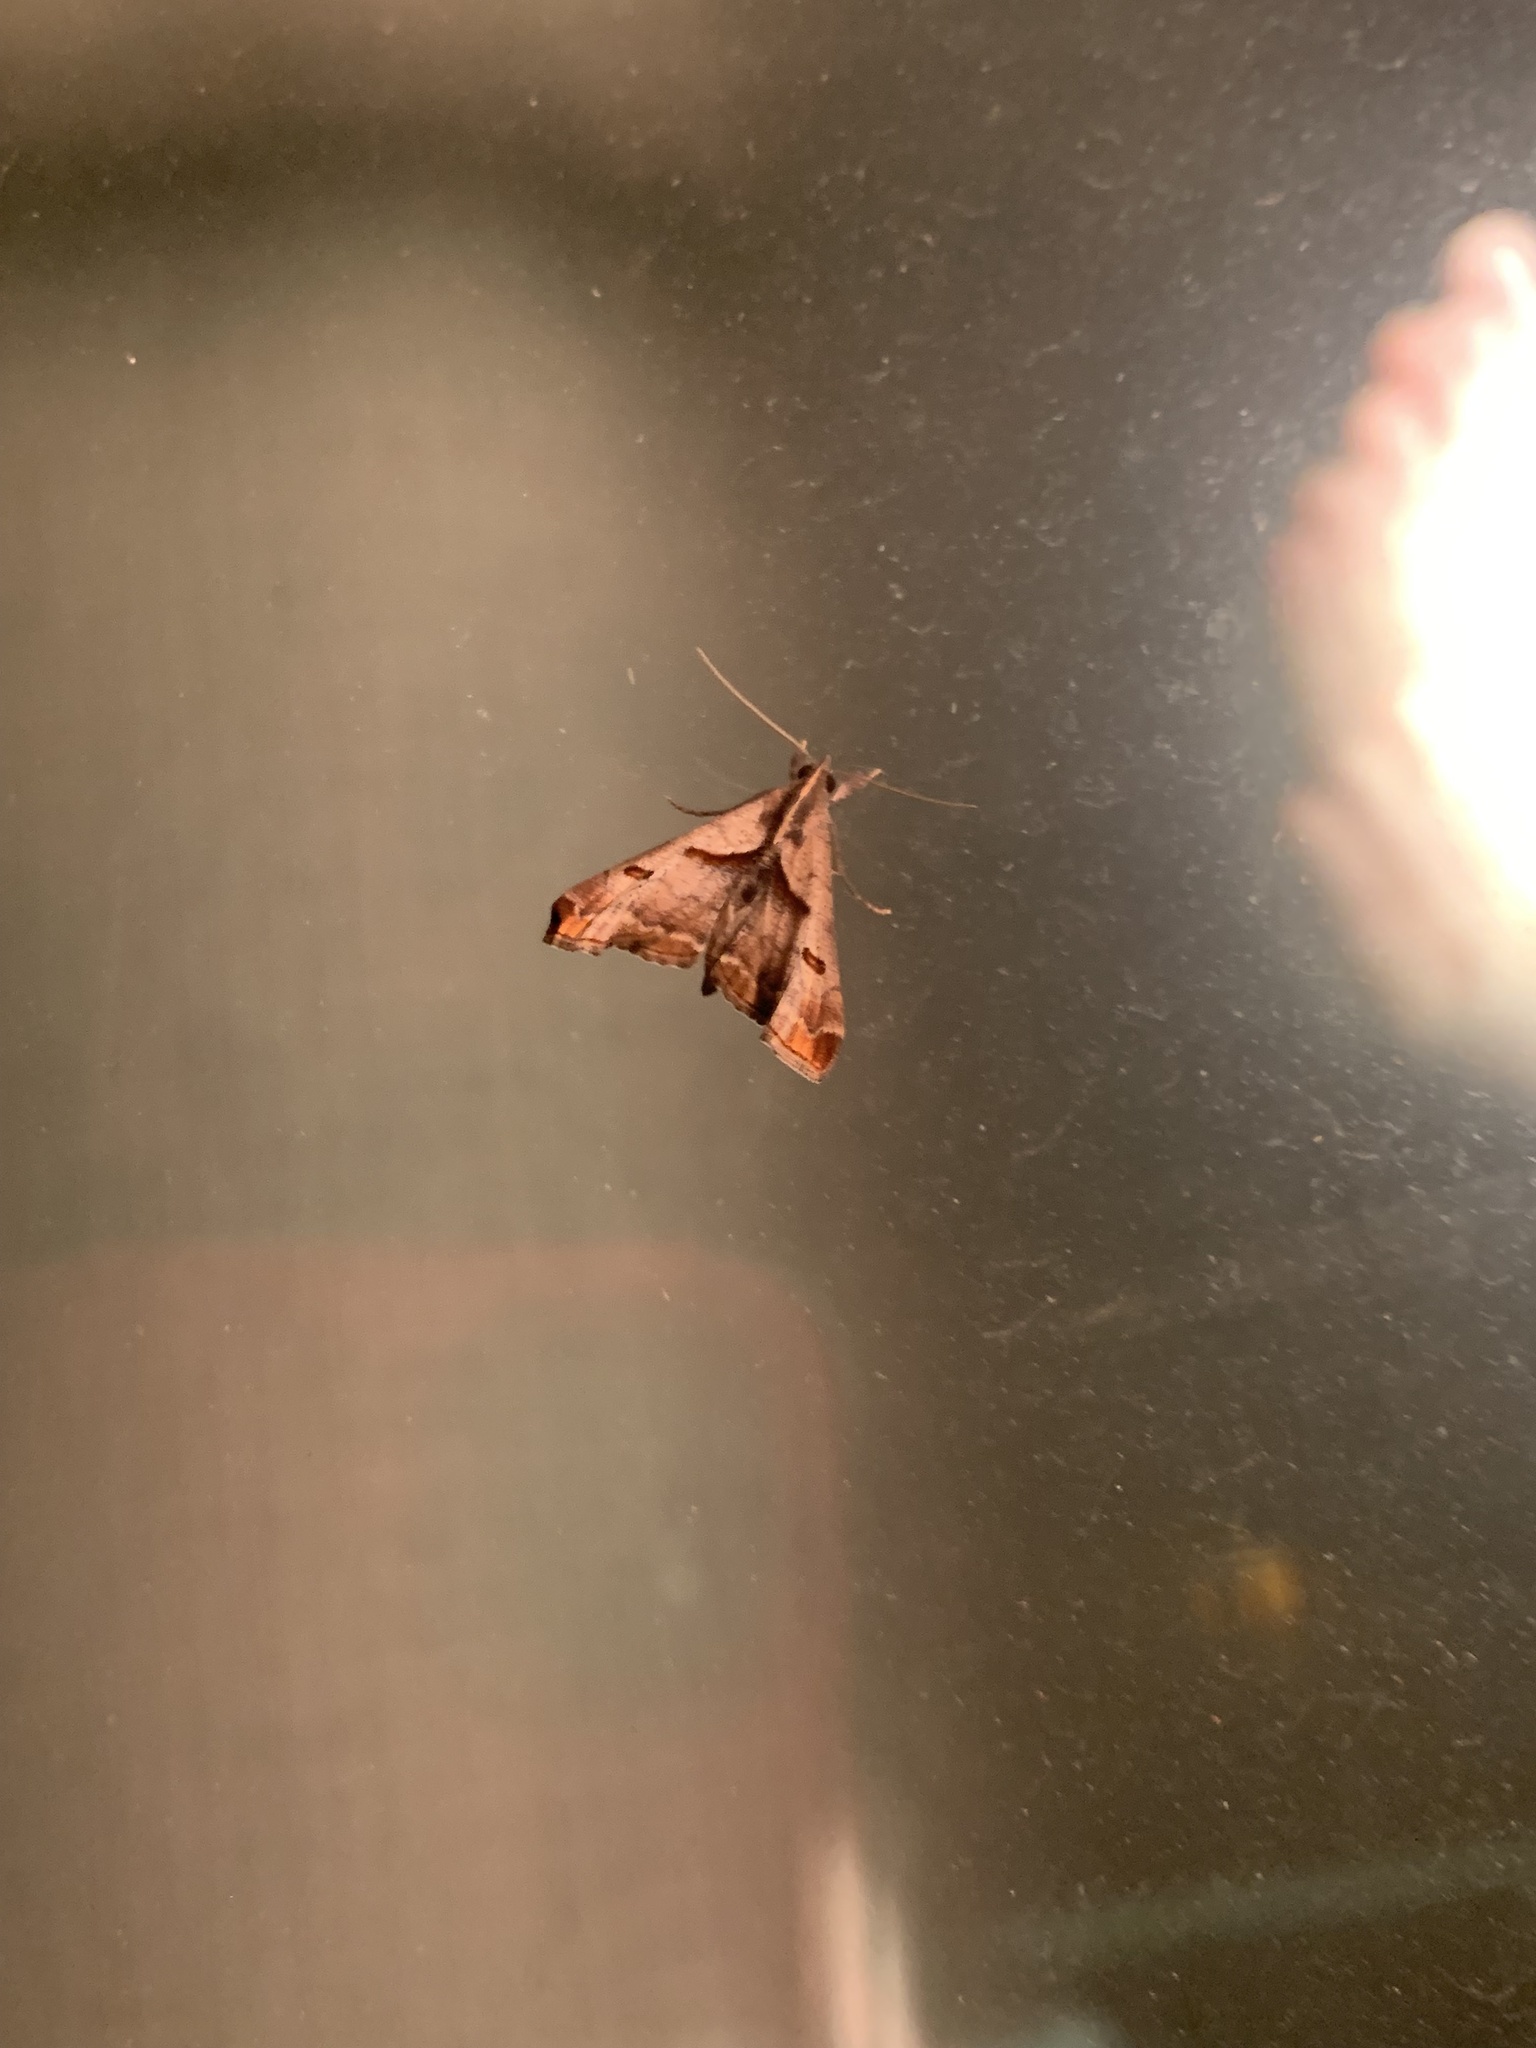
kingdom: Animalia
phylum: Arthropoda
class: Insecta
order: Lepidoptera
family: Erebidae
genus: Palthis
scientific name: Palthis angulalis
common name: Dark-spotted palthis moth
